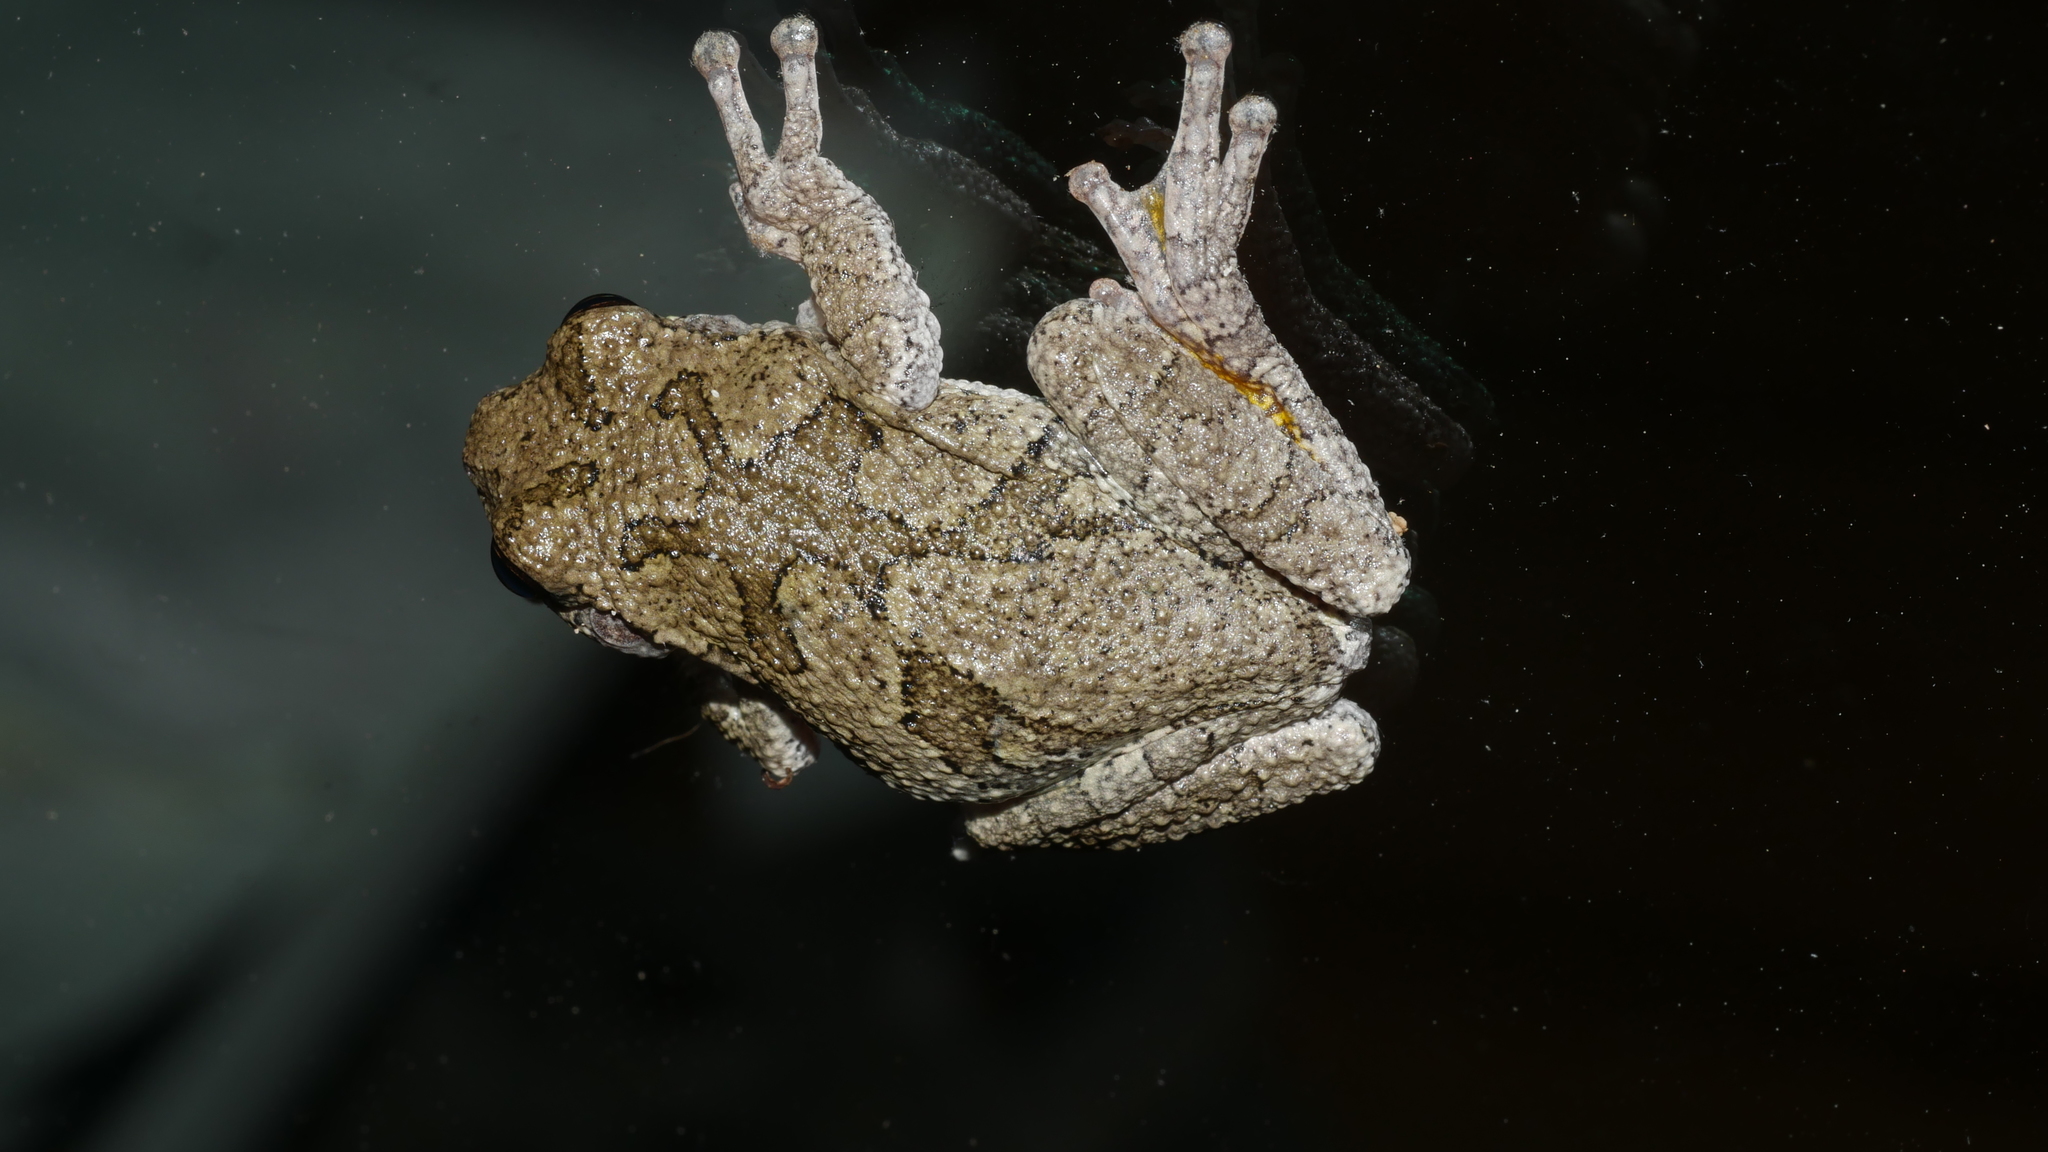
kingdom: Animalia
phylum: Chordata
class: Amphibia
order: Anura
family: Hylidae
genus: Hyla
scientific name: Hyla
